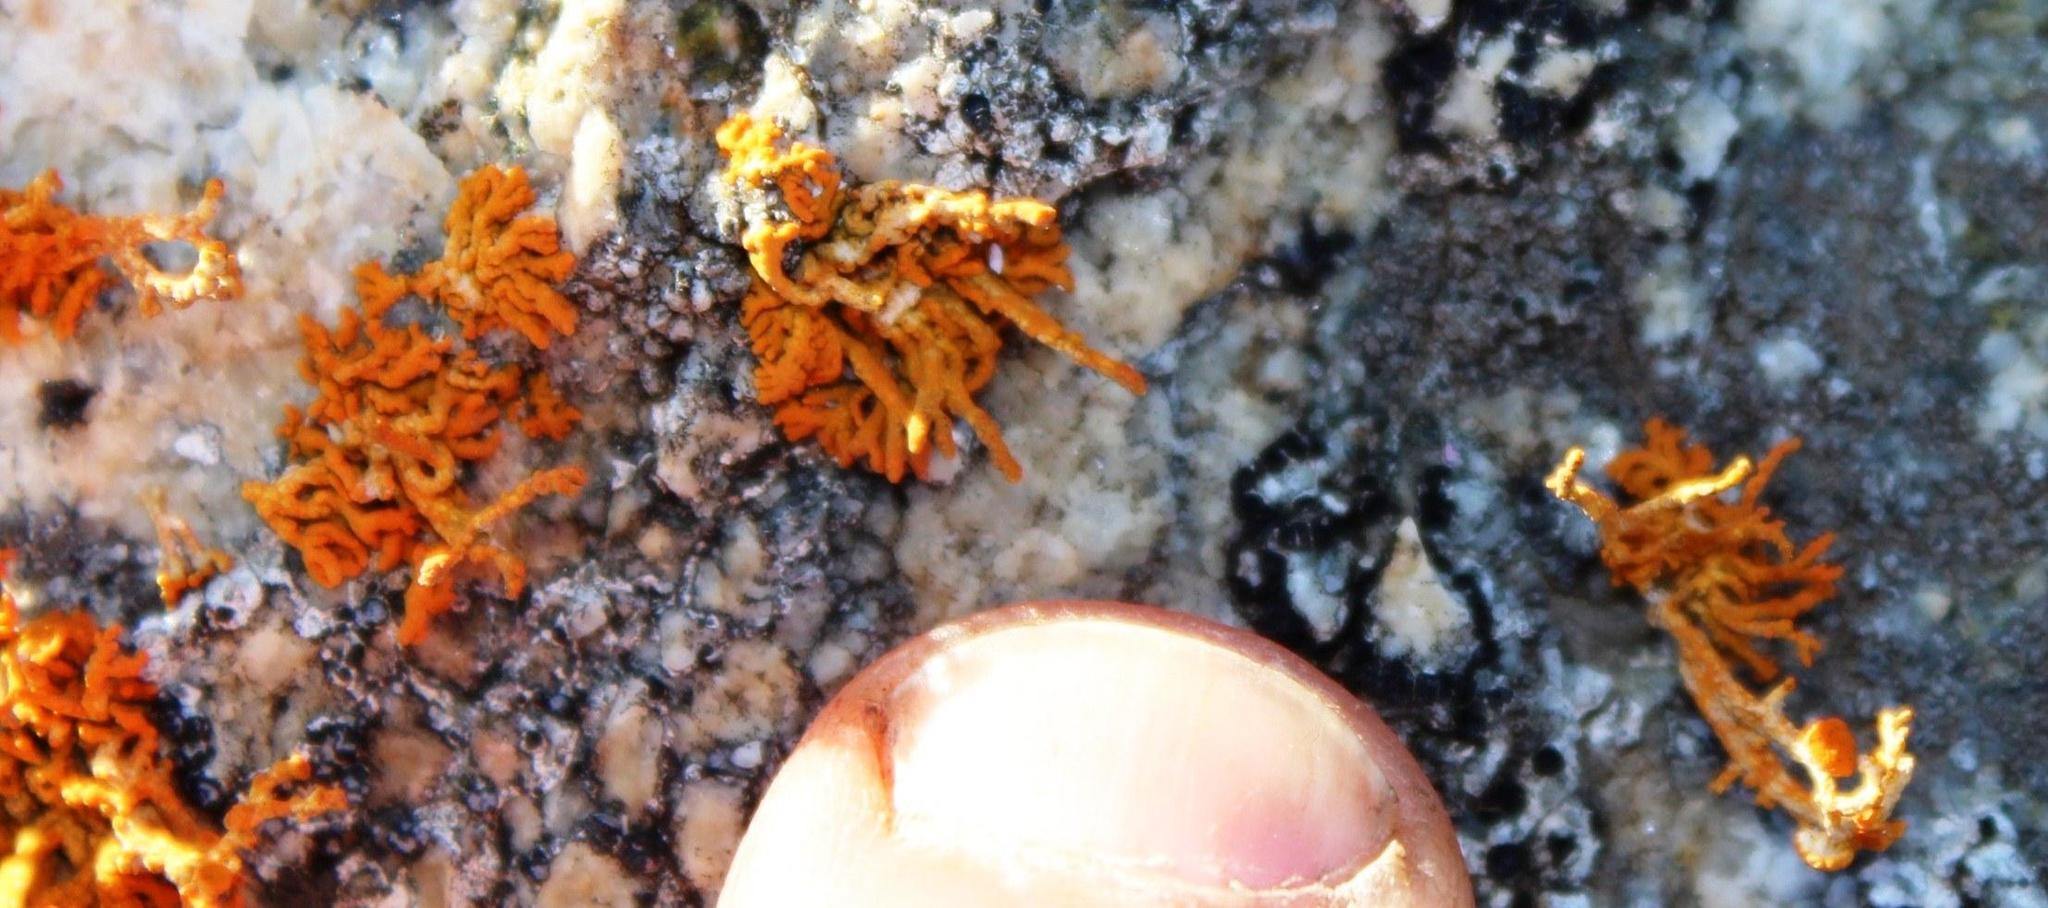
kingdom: Fungi
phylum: Ascomycota
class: Lecanoromycetes
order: Teloschistales
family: Teloschistaceae
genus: Teloschistopsis
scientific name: Teloschistopsis bonae-spei
